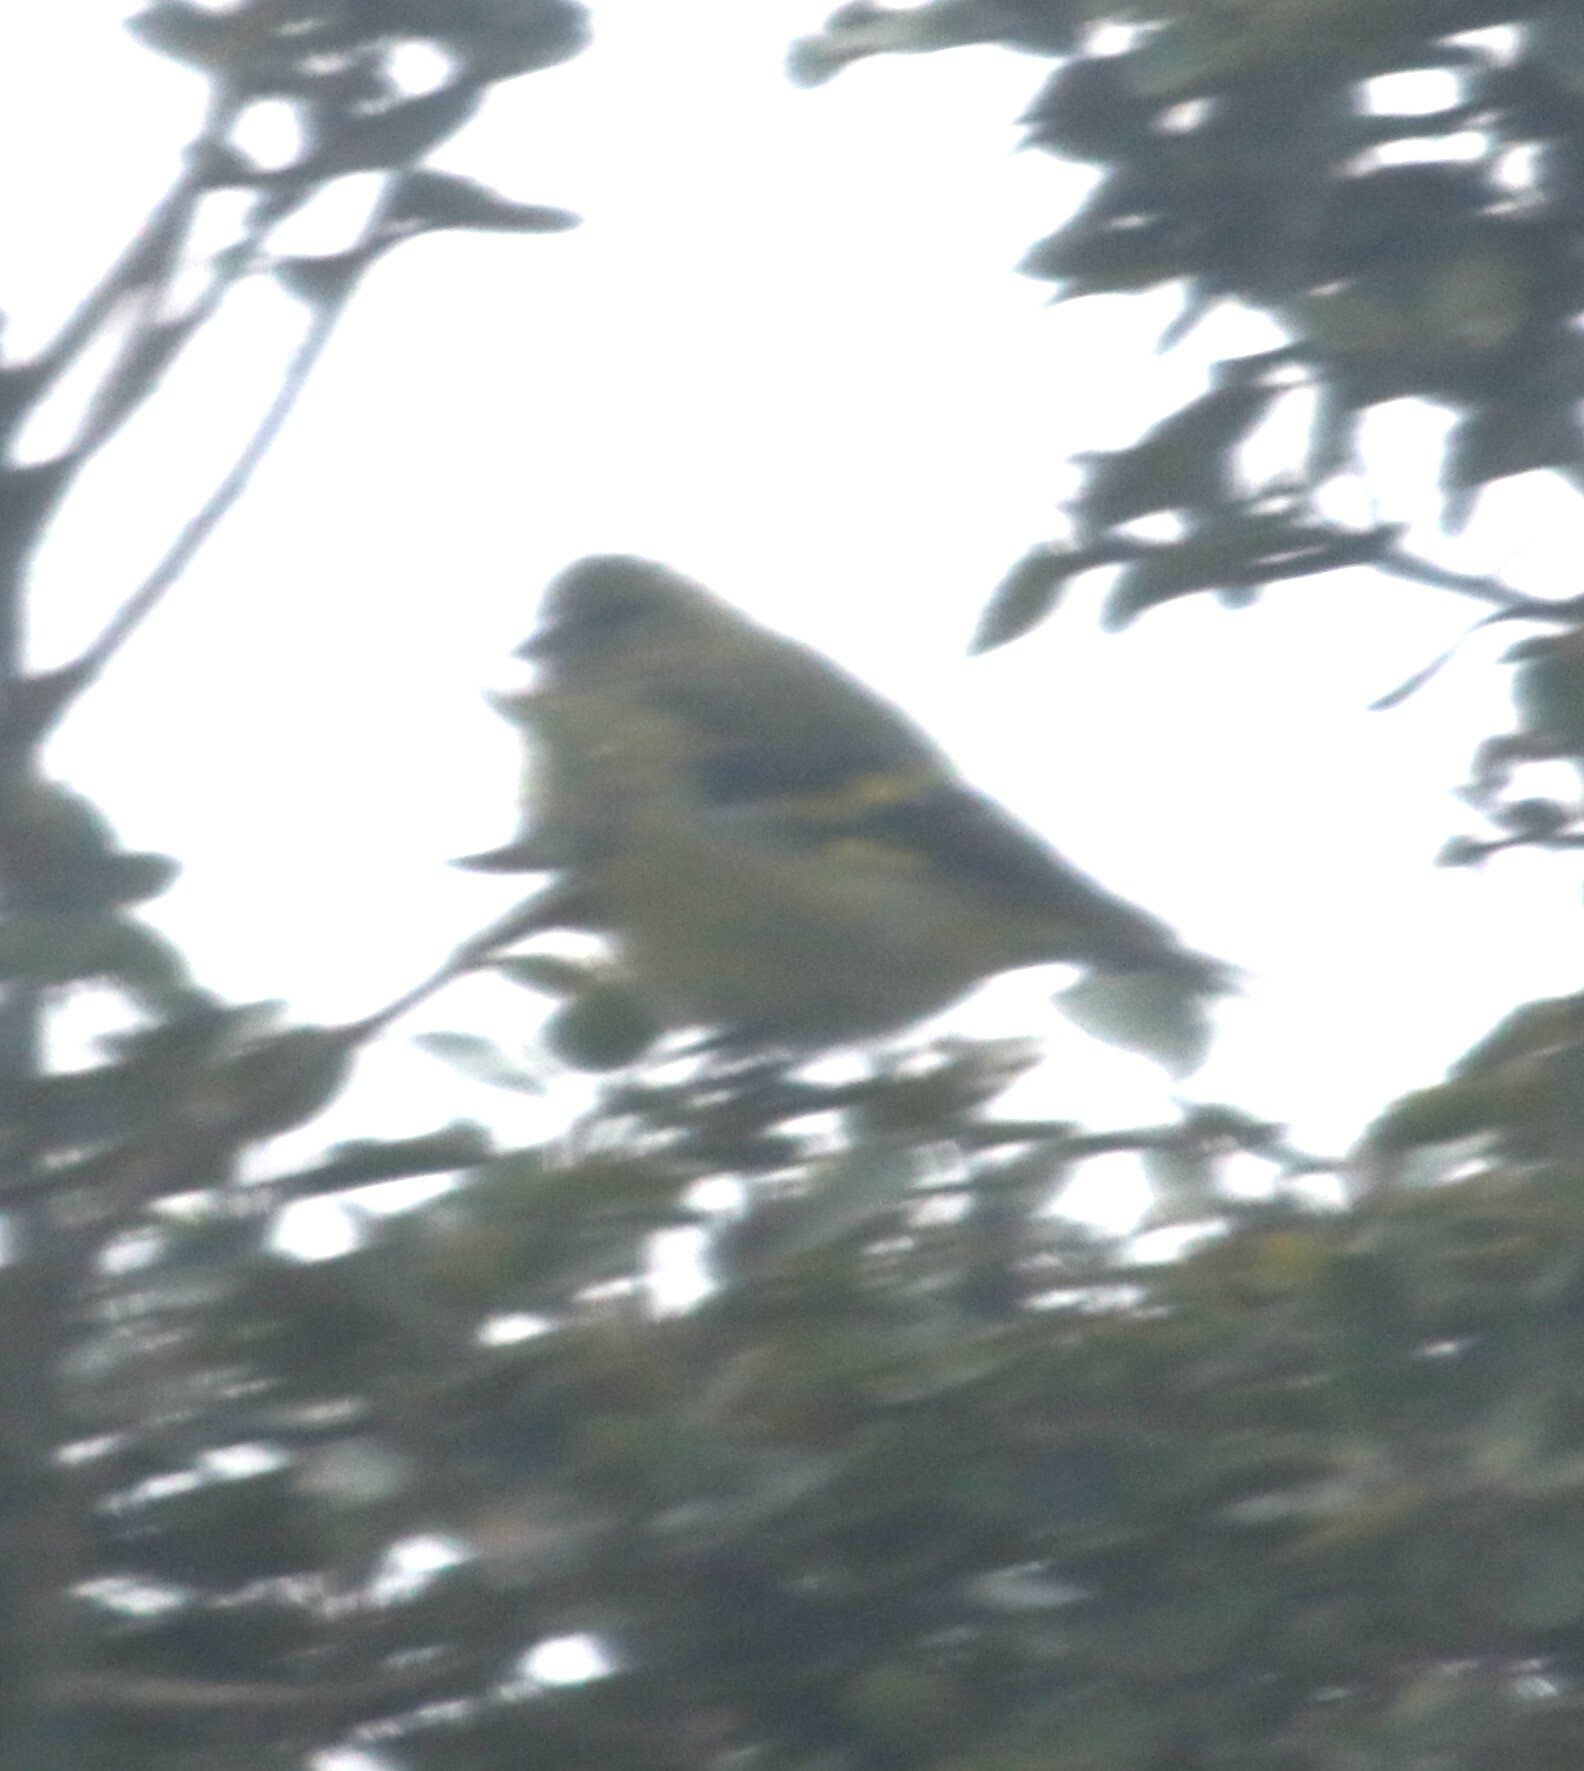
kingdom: Animalia
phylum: Chordata
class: Aves
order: Passeriformes
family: Fringillidae
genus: Spinus
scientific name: Spinus spinescens
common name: Andean siskin
